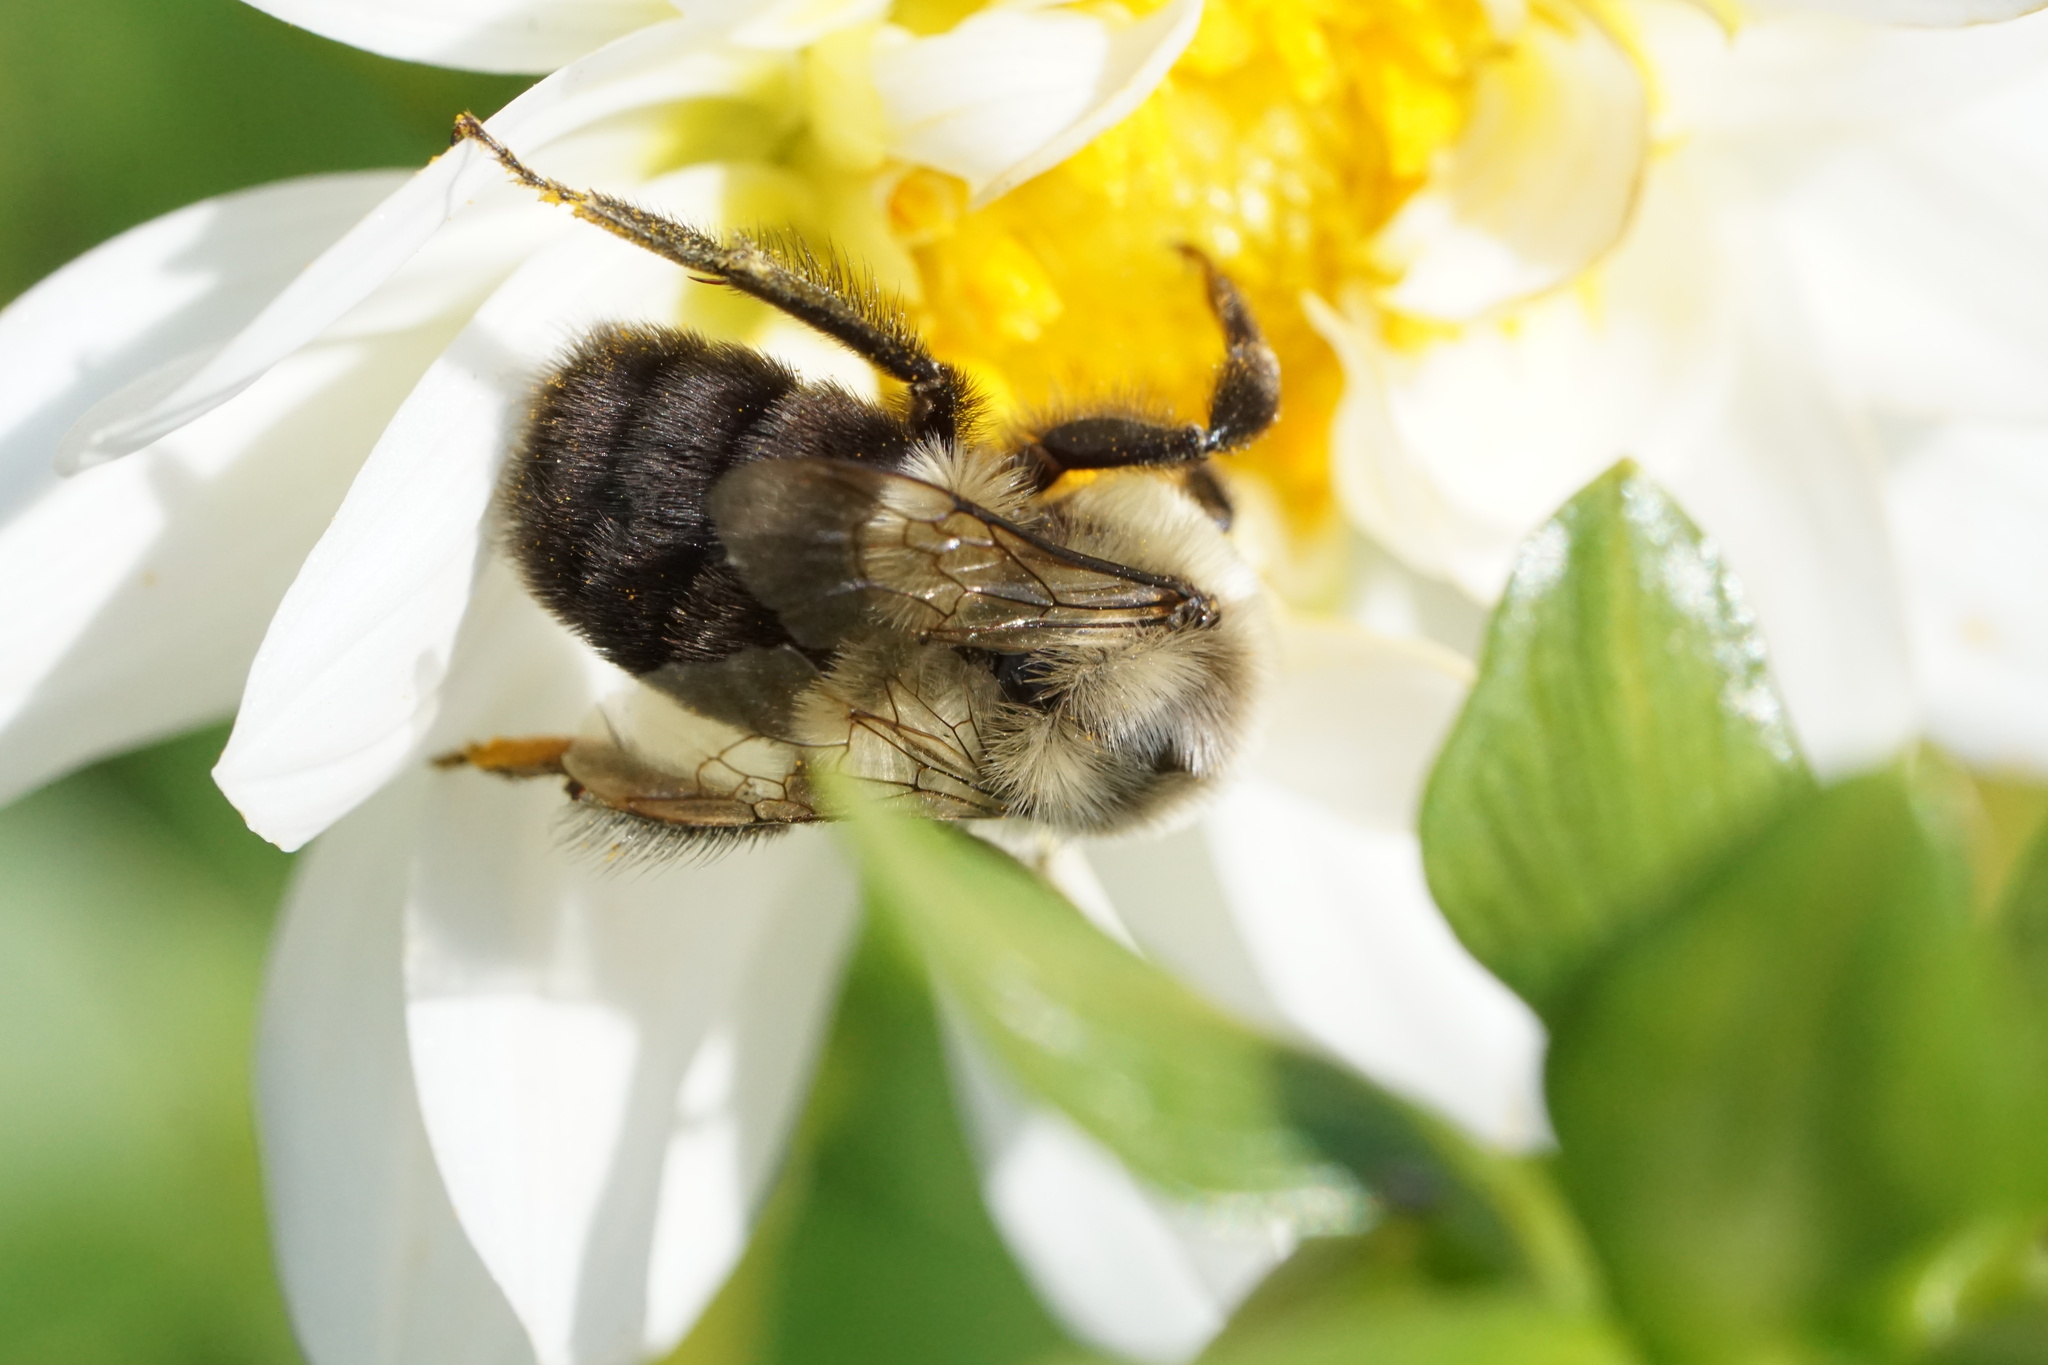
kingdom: Animalia
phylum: Arthropoda
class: Insecta
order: Hymenoptera
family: Apidae
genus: Bombus
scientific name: Bombus impatiens
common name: Common eastern bumble bee
